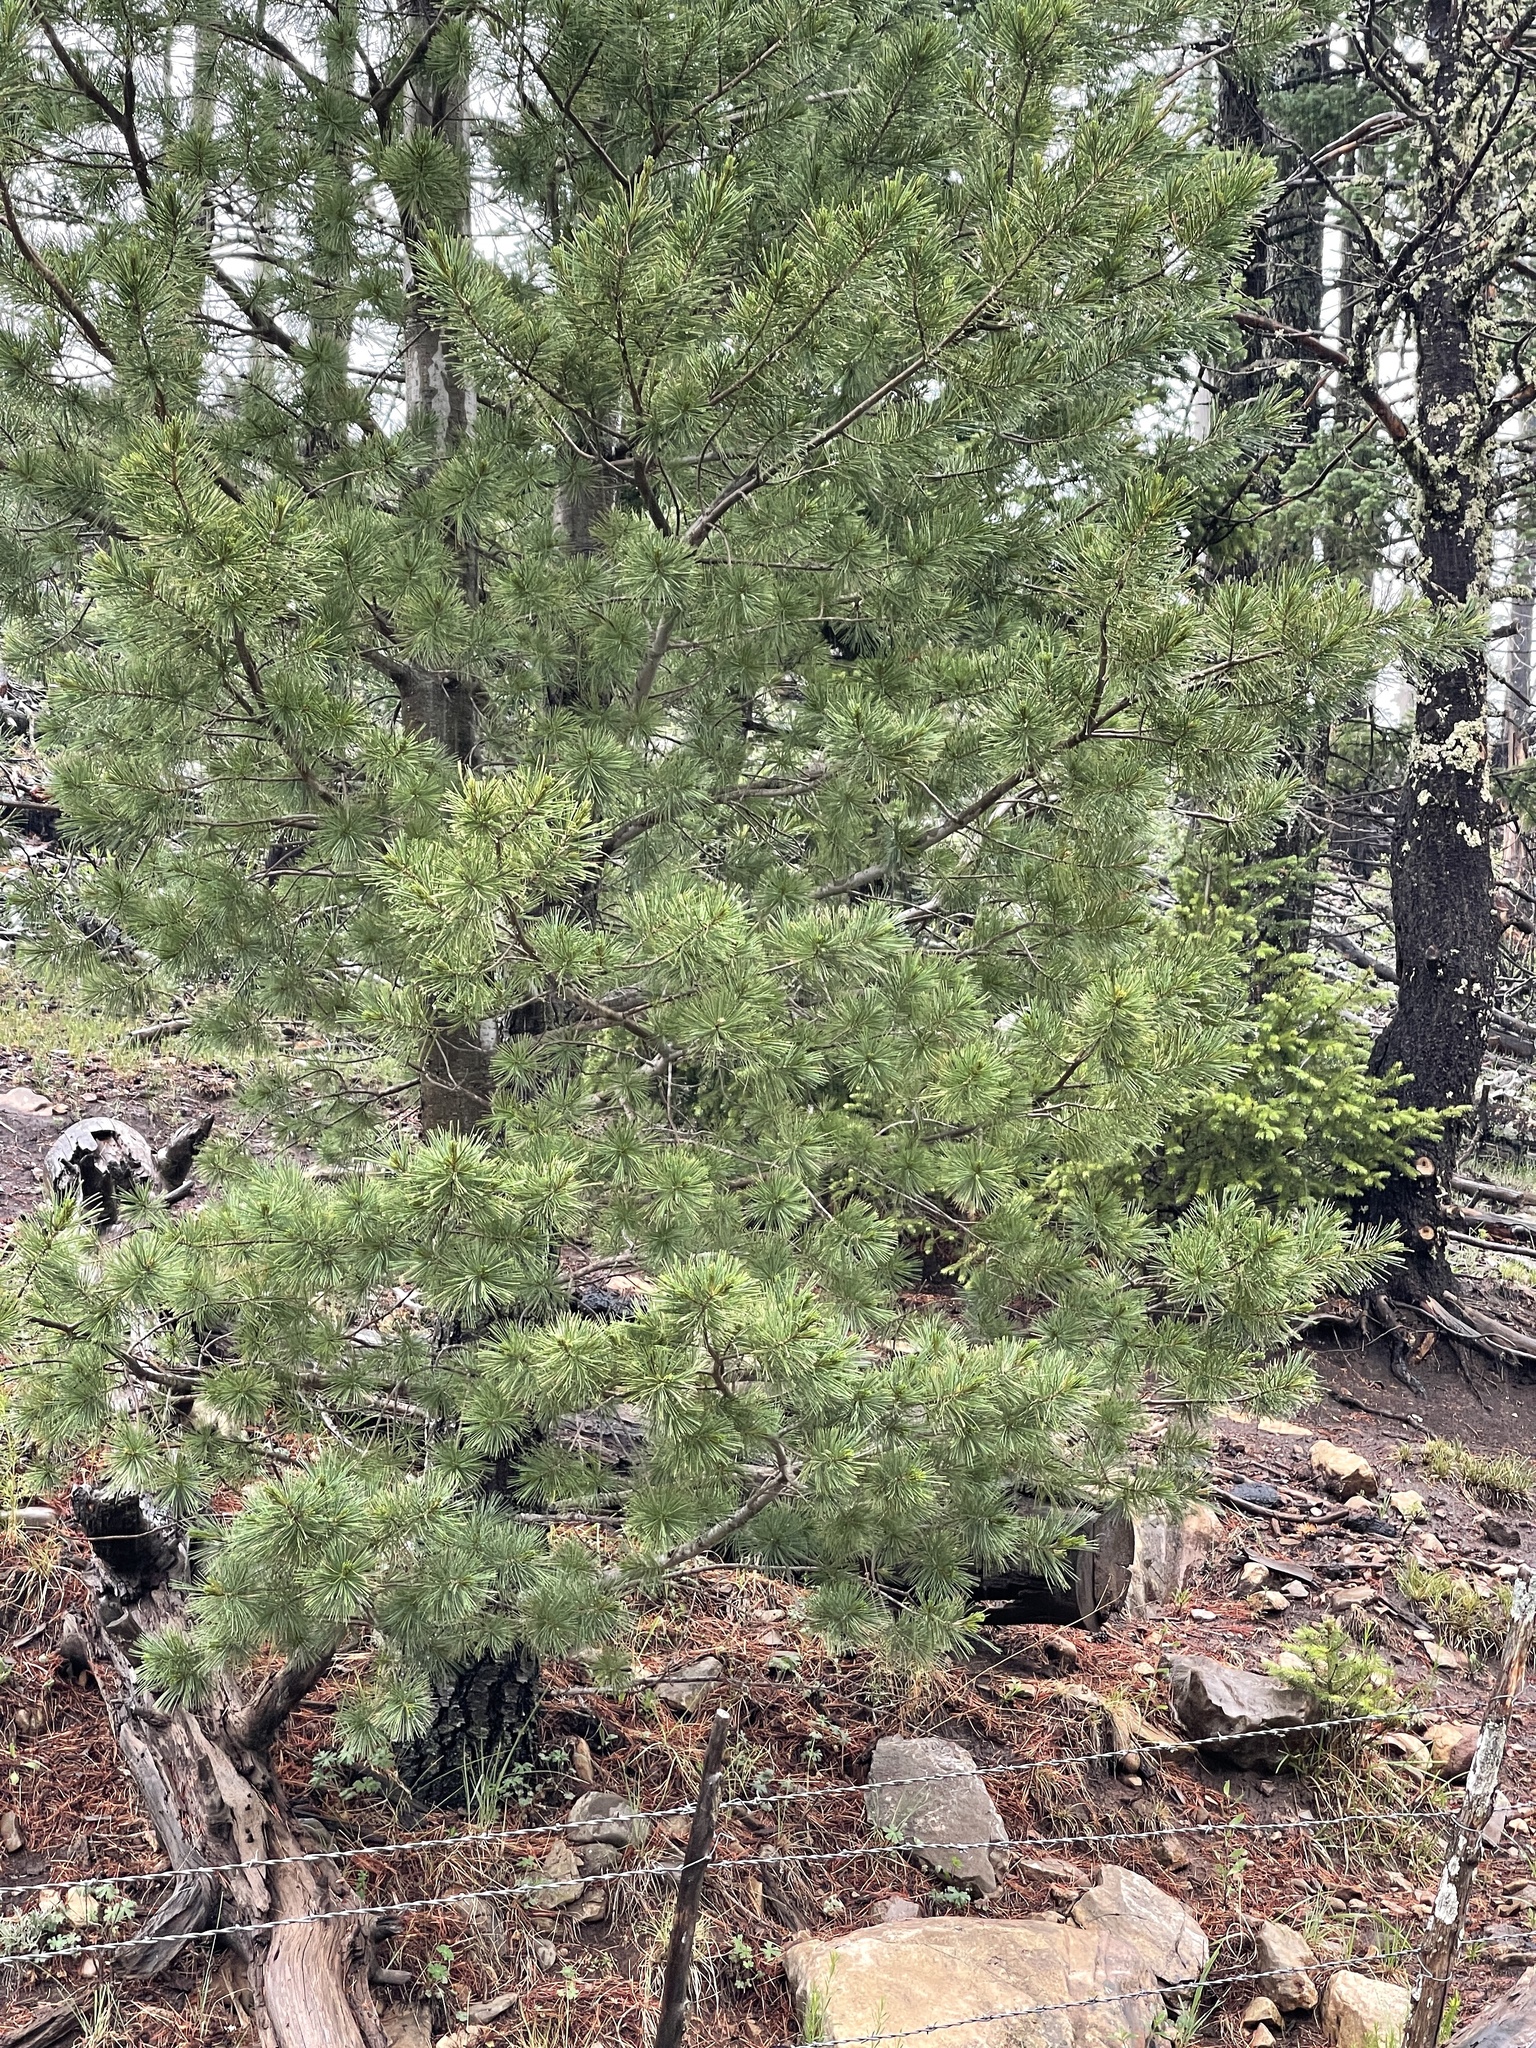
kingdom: Plantae
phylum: Tracheophyta
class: Pinopsida
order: Pinales
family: Pinaceae
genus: Pinus
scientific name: Pinus strobiformis
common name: Southwestern white pine
